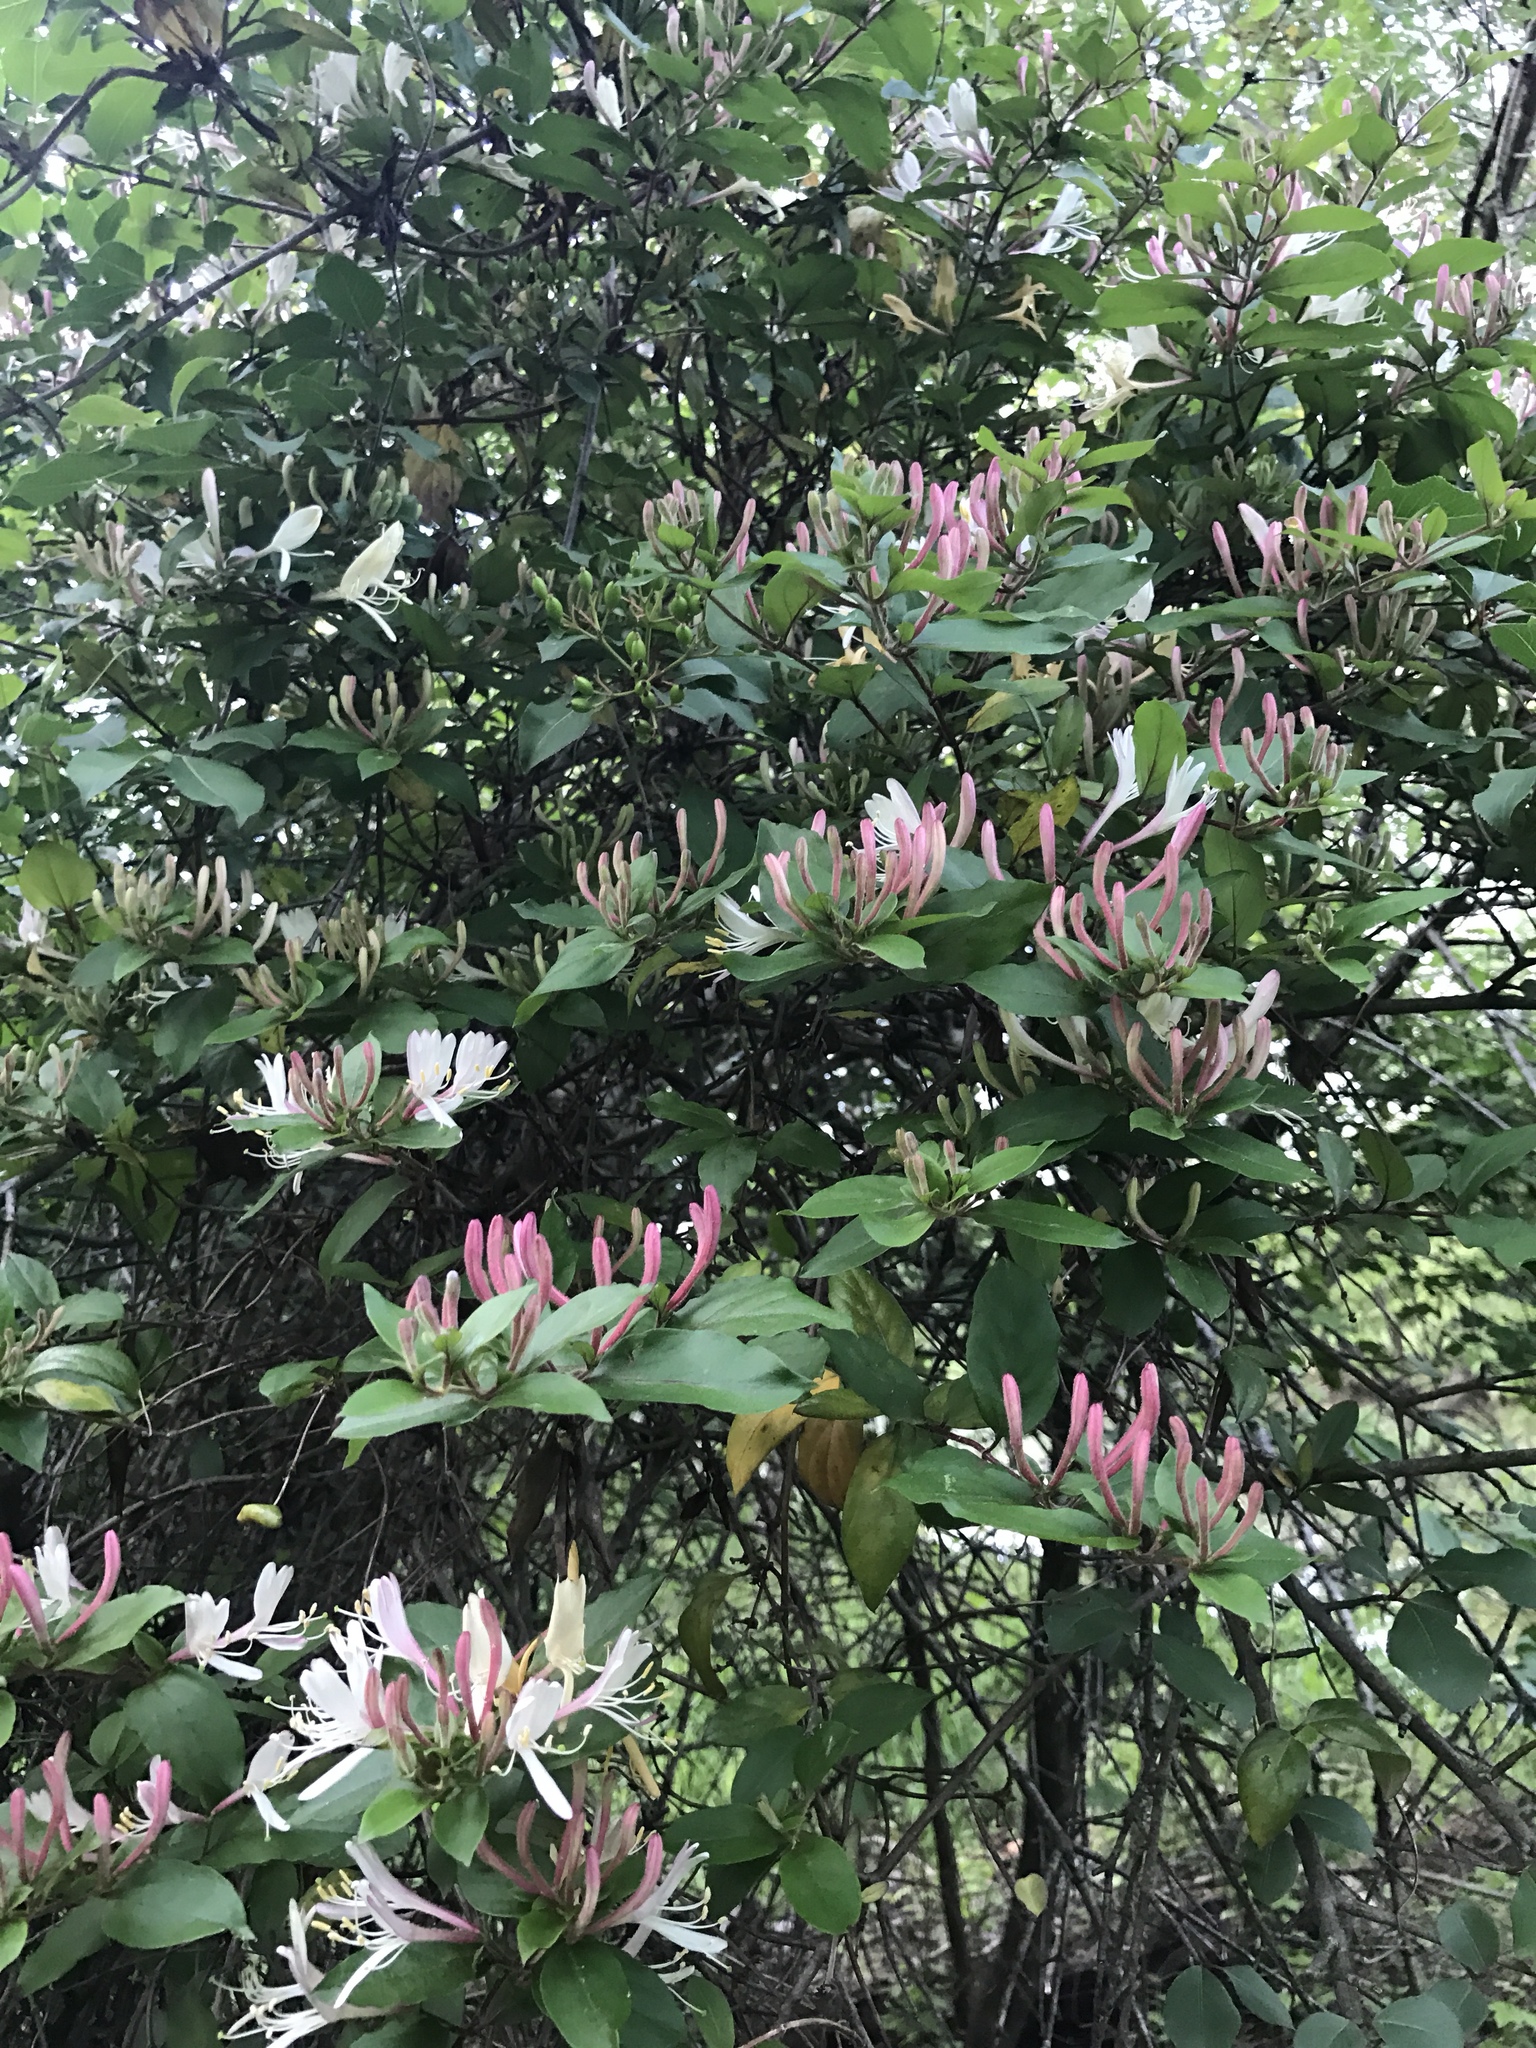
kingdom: Plantae
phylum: Tracheophyta
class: Magnoliopsida
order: Dipsacales
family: Caprifoliaceae
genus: Lonicera
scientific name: Lonicera japonica
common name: Japanese honeysuckle
